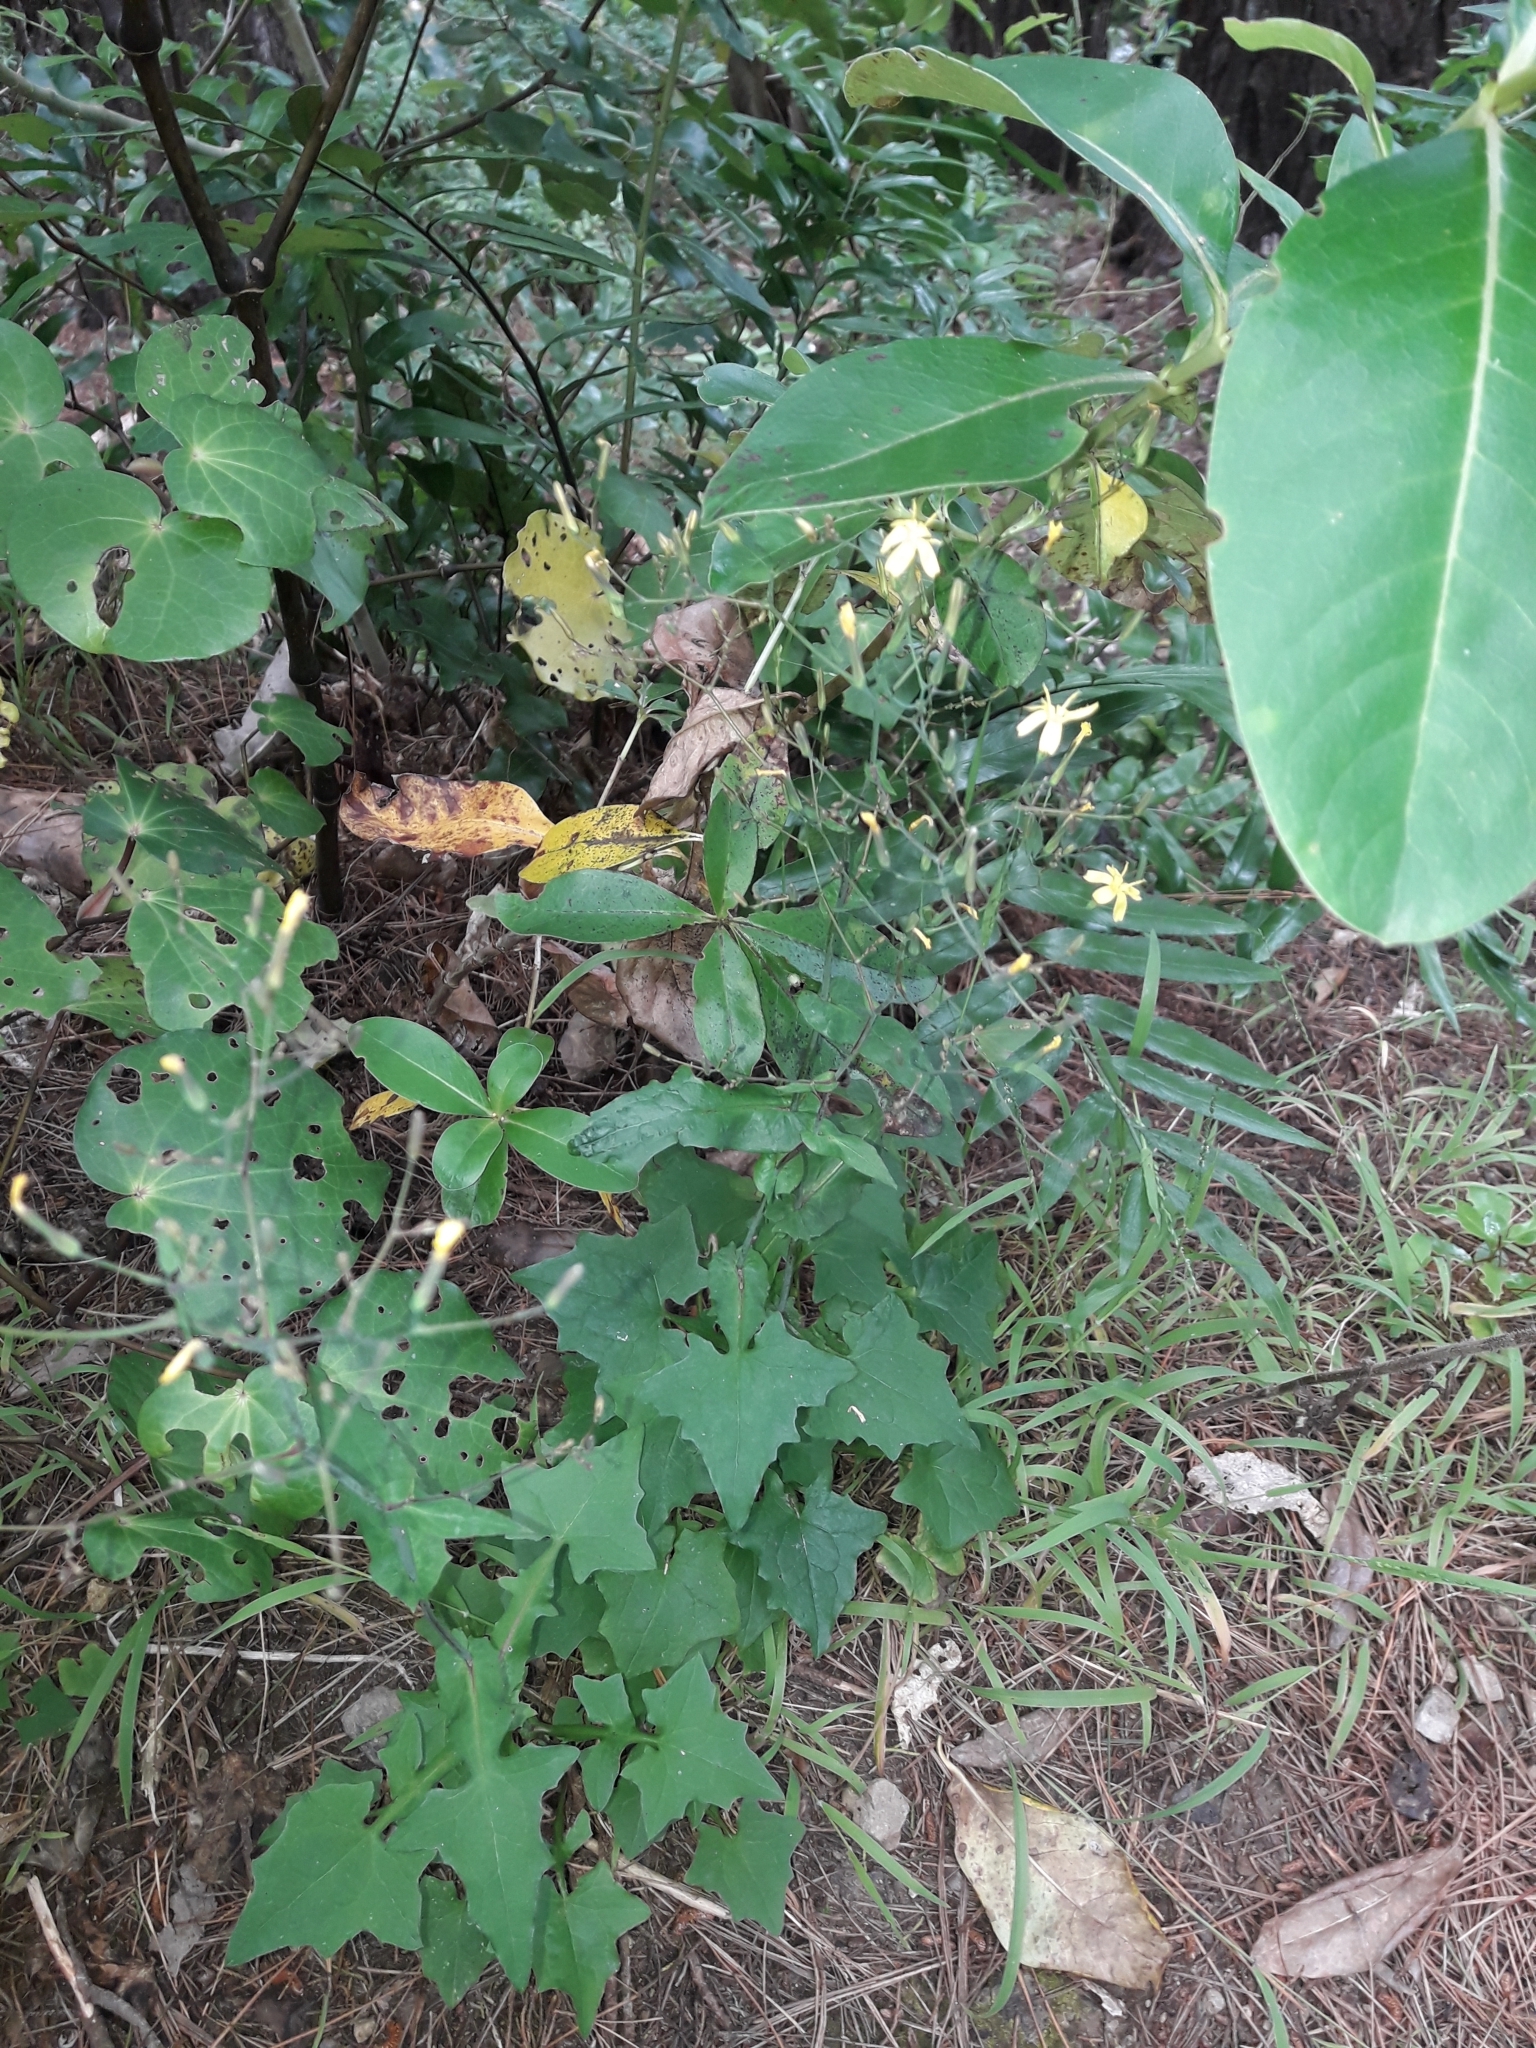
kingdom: Plantae
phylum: Tracheophyta
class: Magnoliopsida
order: Asterales
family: Asteraceae
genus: Mycelis
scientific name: Mycelis muralis
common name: Wall lettuce
